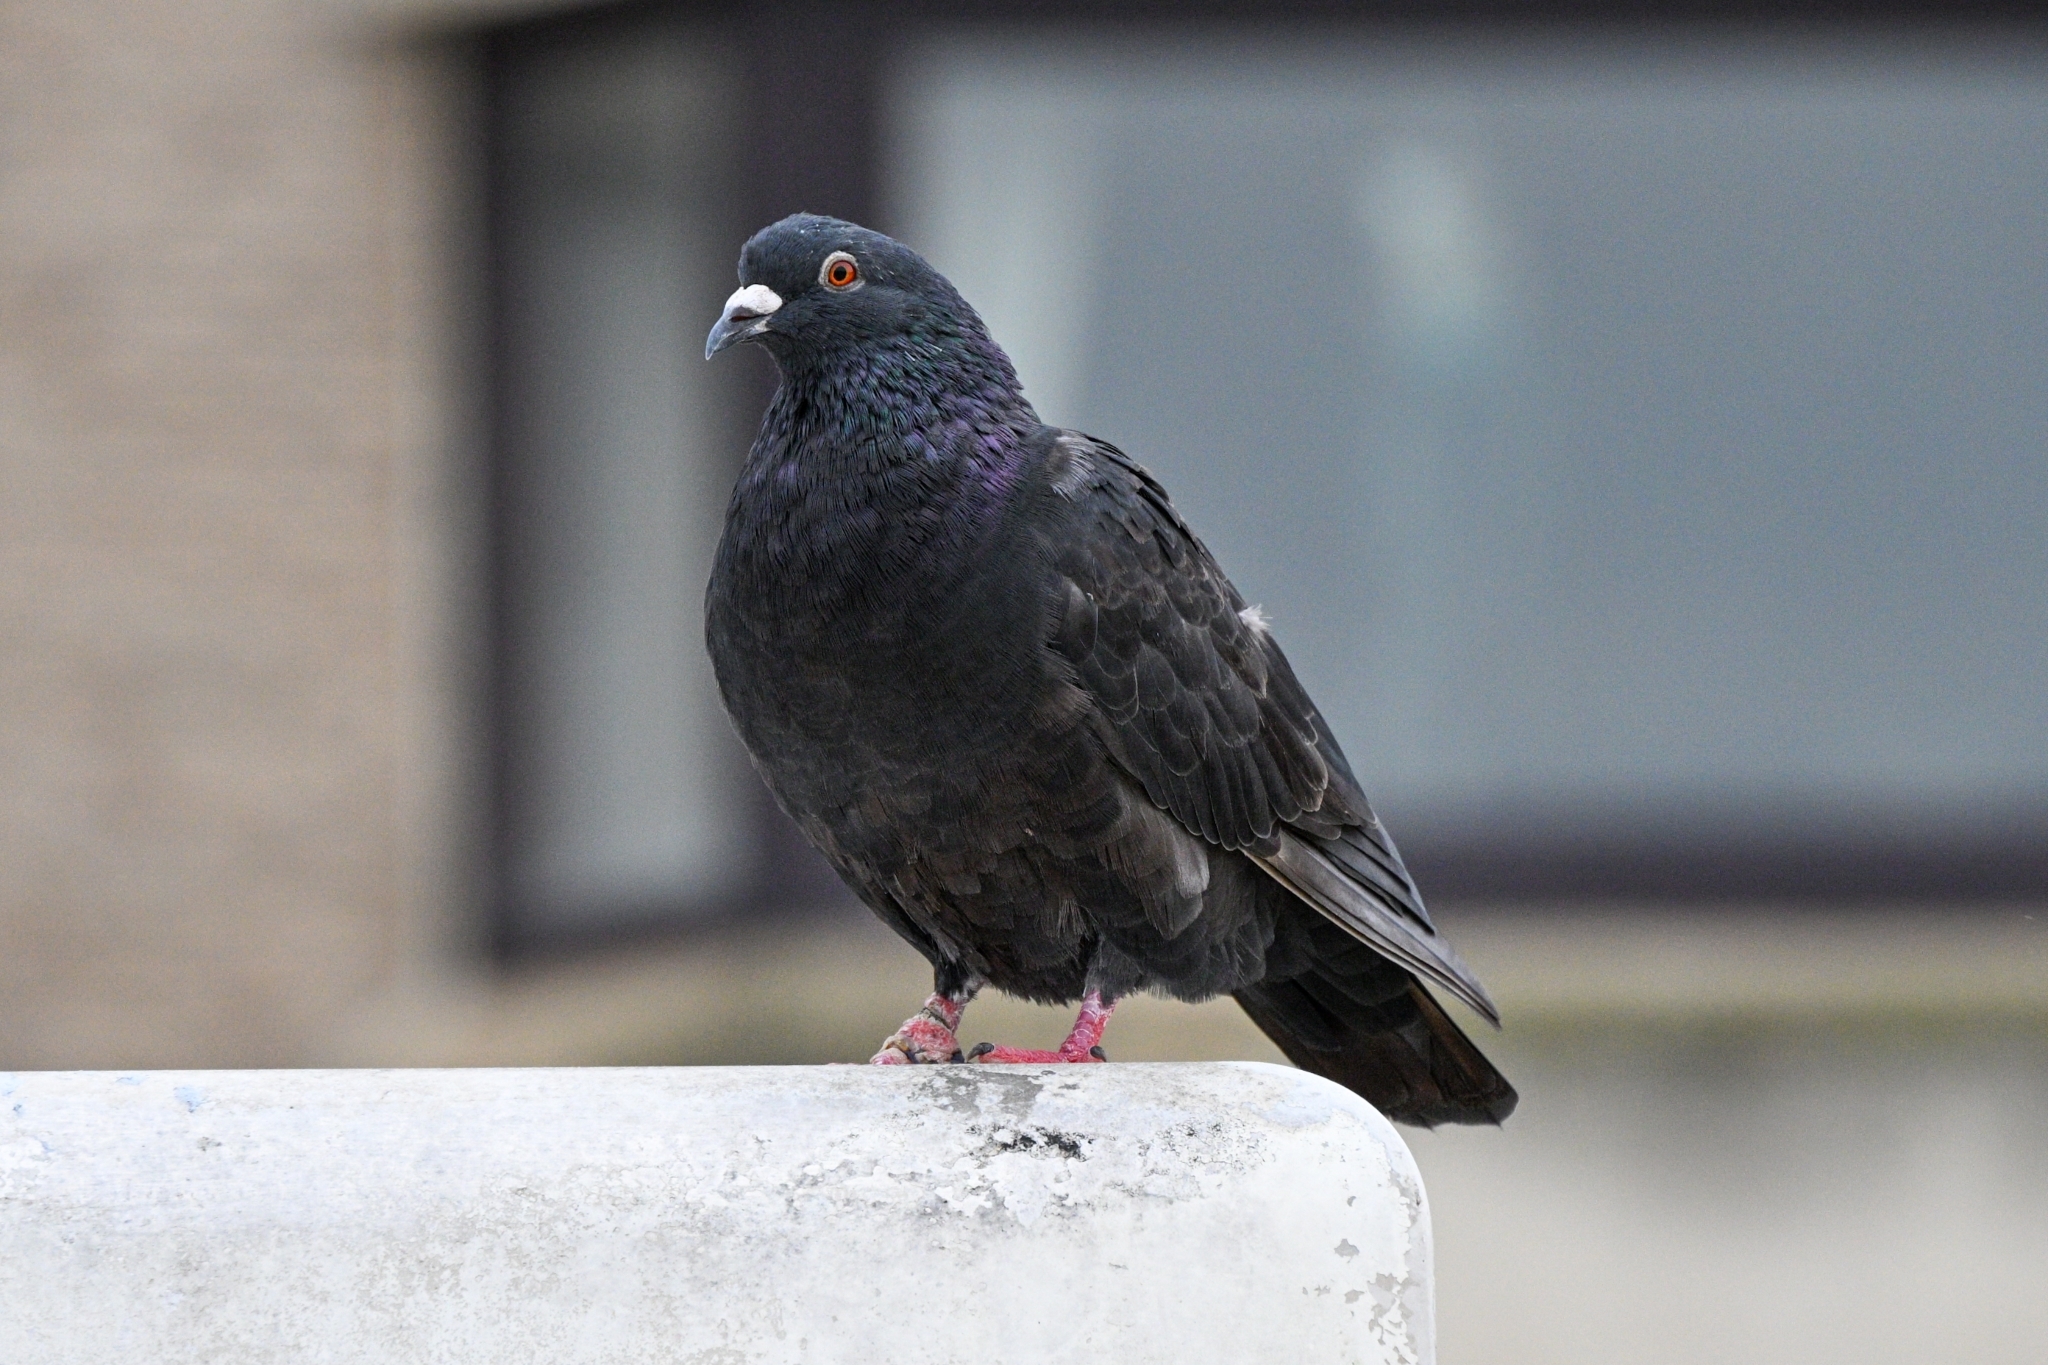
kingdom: Animalia
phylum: Chordata
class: Aves
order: Columbiformes
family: Columbidae
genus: Columba
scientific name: Columba livia
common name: Rock pigeon
